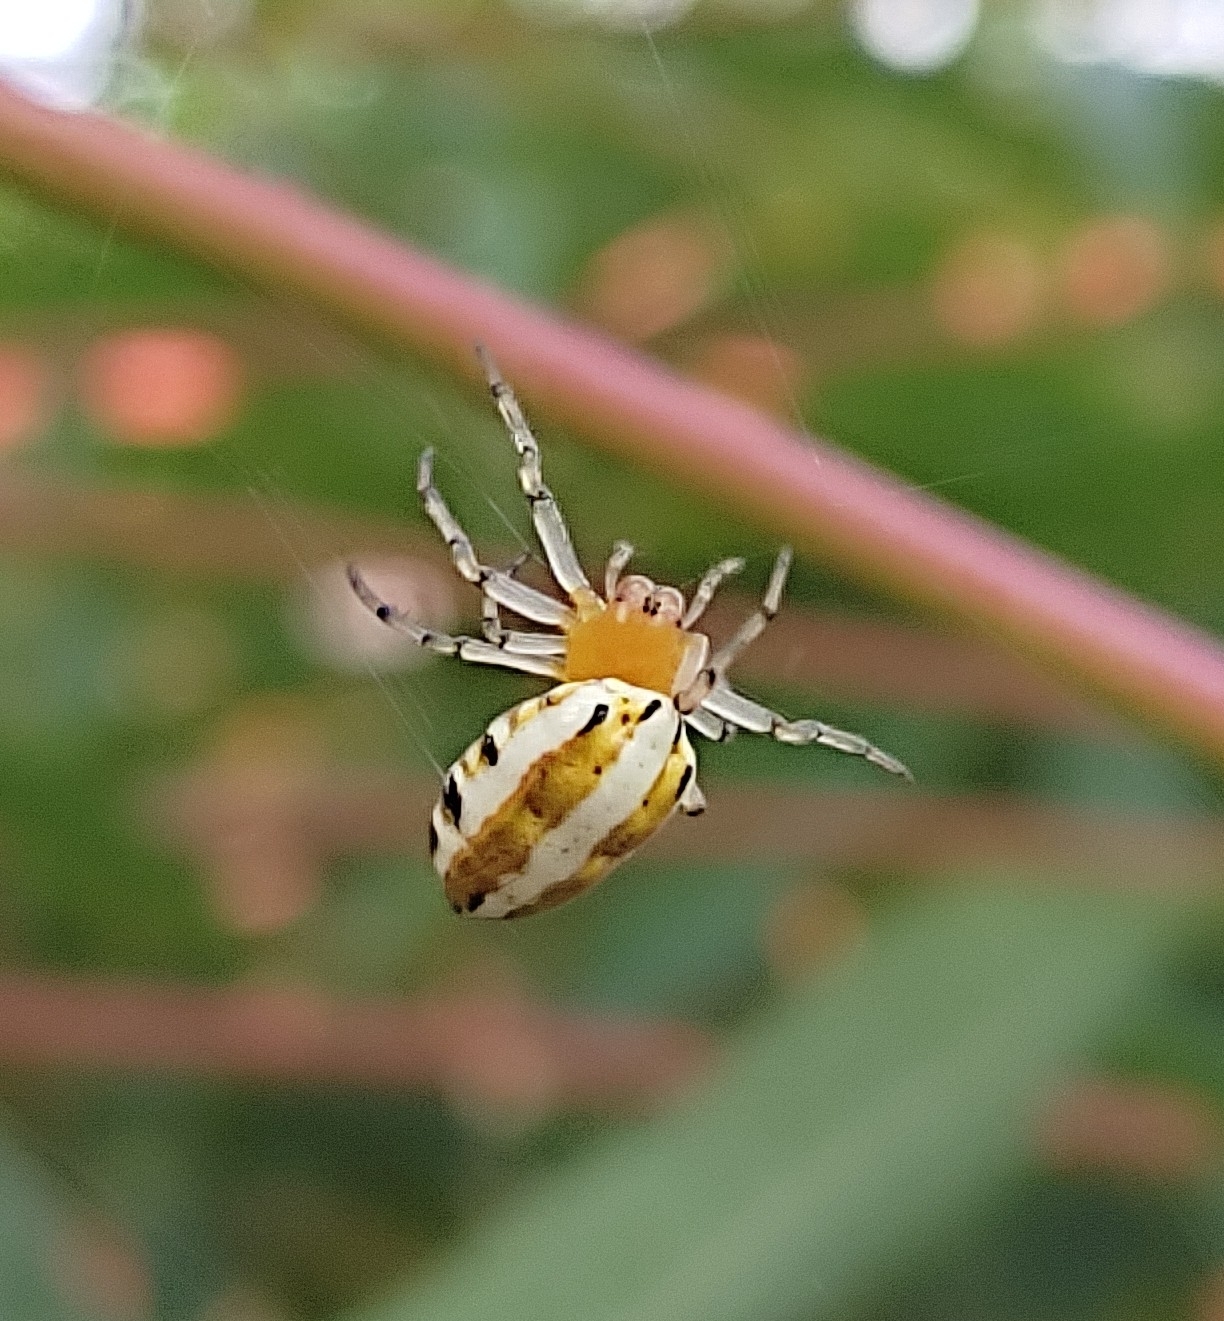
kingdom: Animalia
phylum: Arthropoda
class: Arachnida
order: Araneae
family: Araneidae
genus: Alpaida
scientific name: Alpaida rubellula
